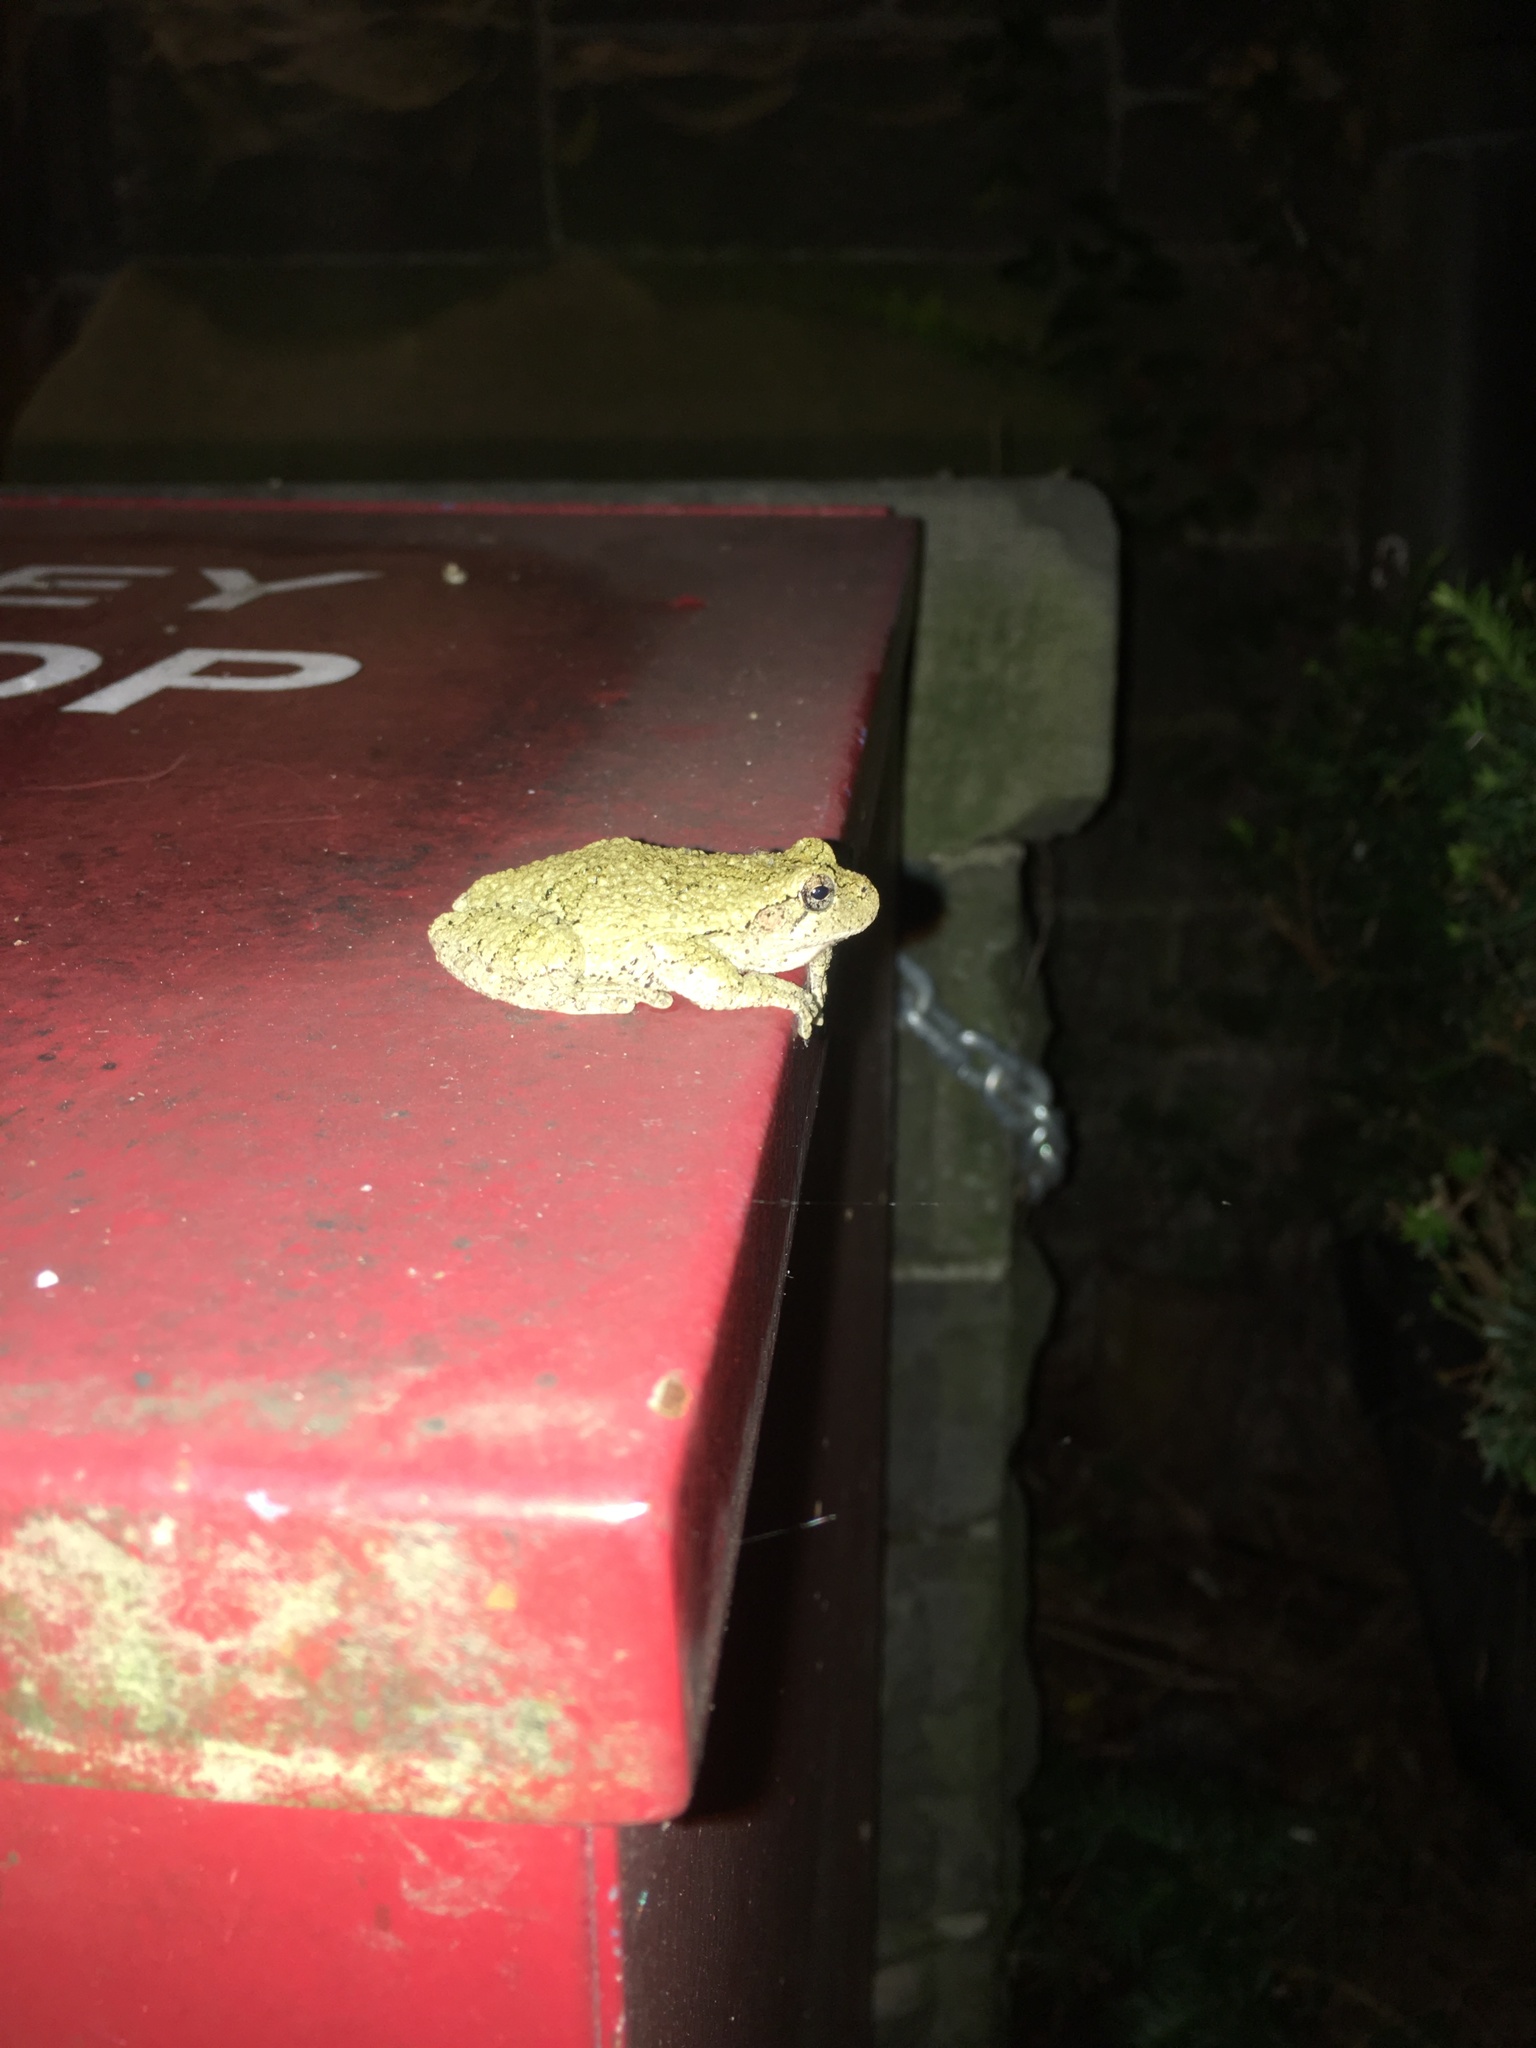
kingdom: Animalia
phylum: Chordata
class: Amphibia
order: Anura
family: Hylidae
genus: Dryophytes
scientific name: Dryophytes versicolor
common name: Gray treefrog
